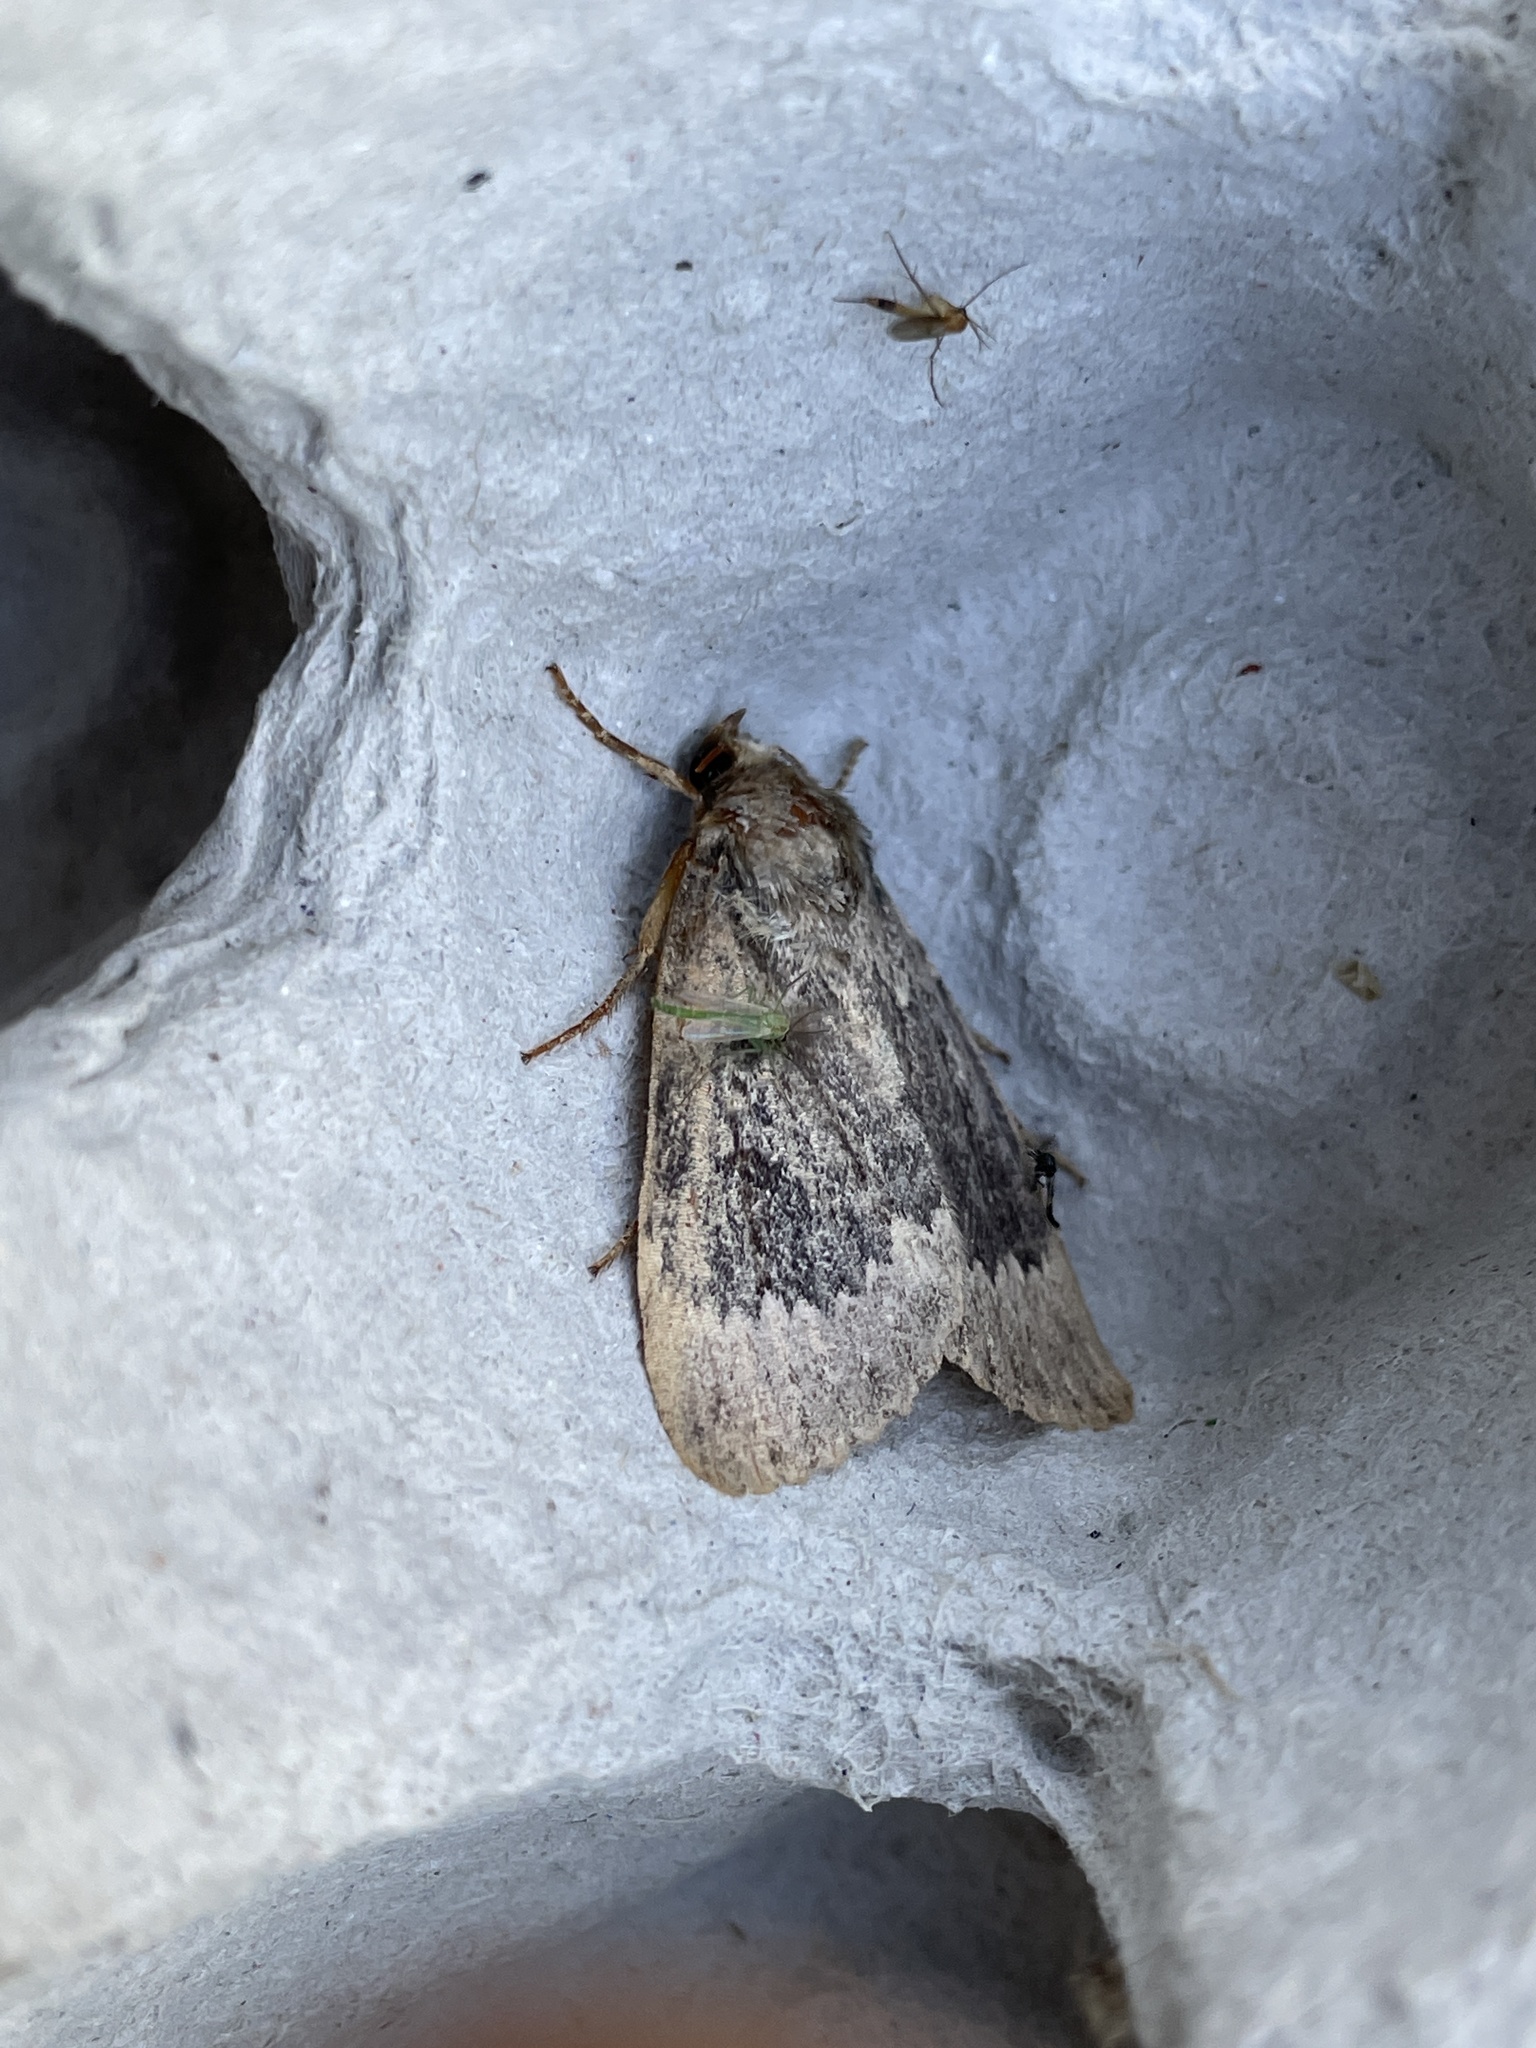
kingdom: Animalia
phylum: Arthropoda
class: Insecta
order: Lepidoptera
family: Noctuidae
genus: Amphipyra
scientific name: Amphipyra perflua
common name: Larger pale-tipped black moth
